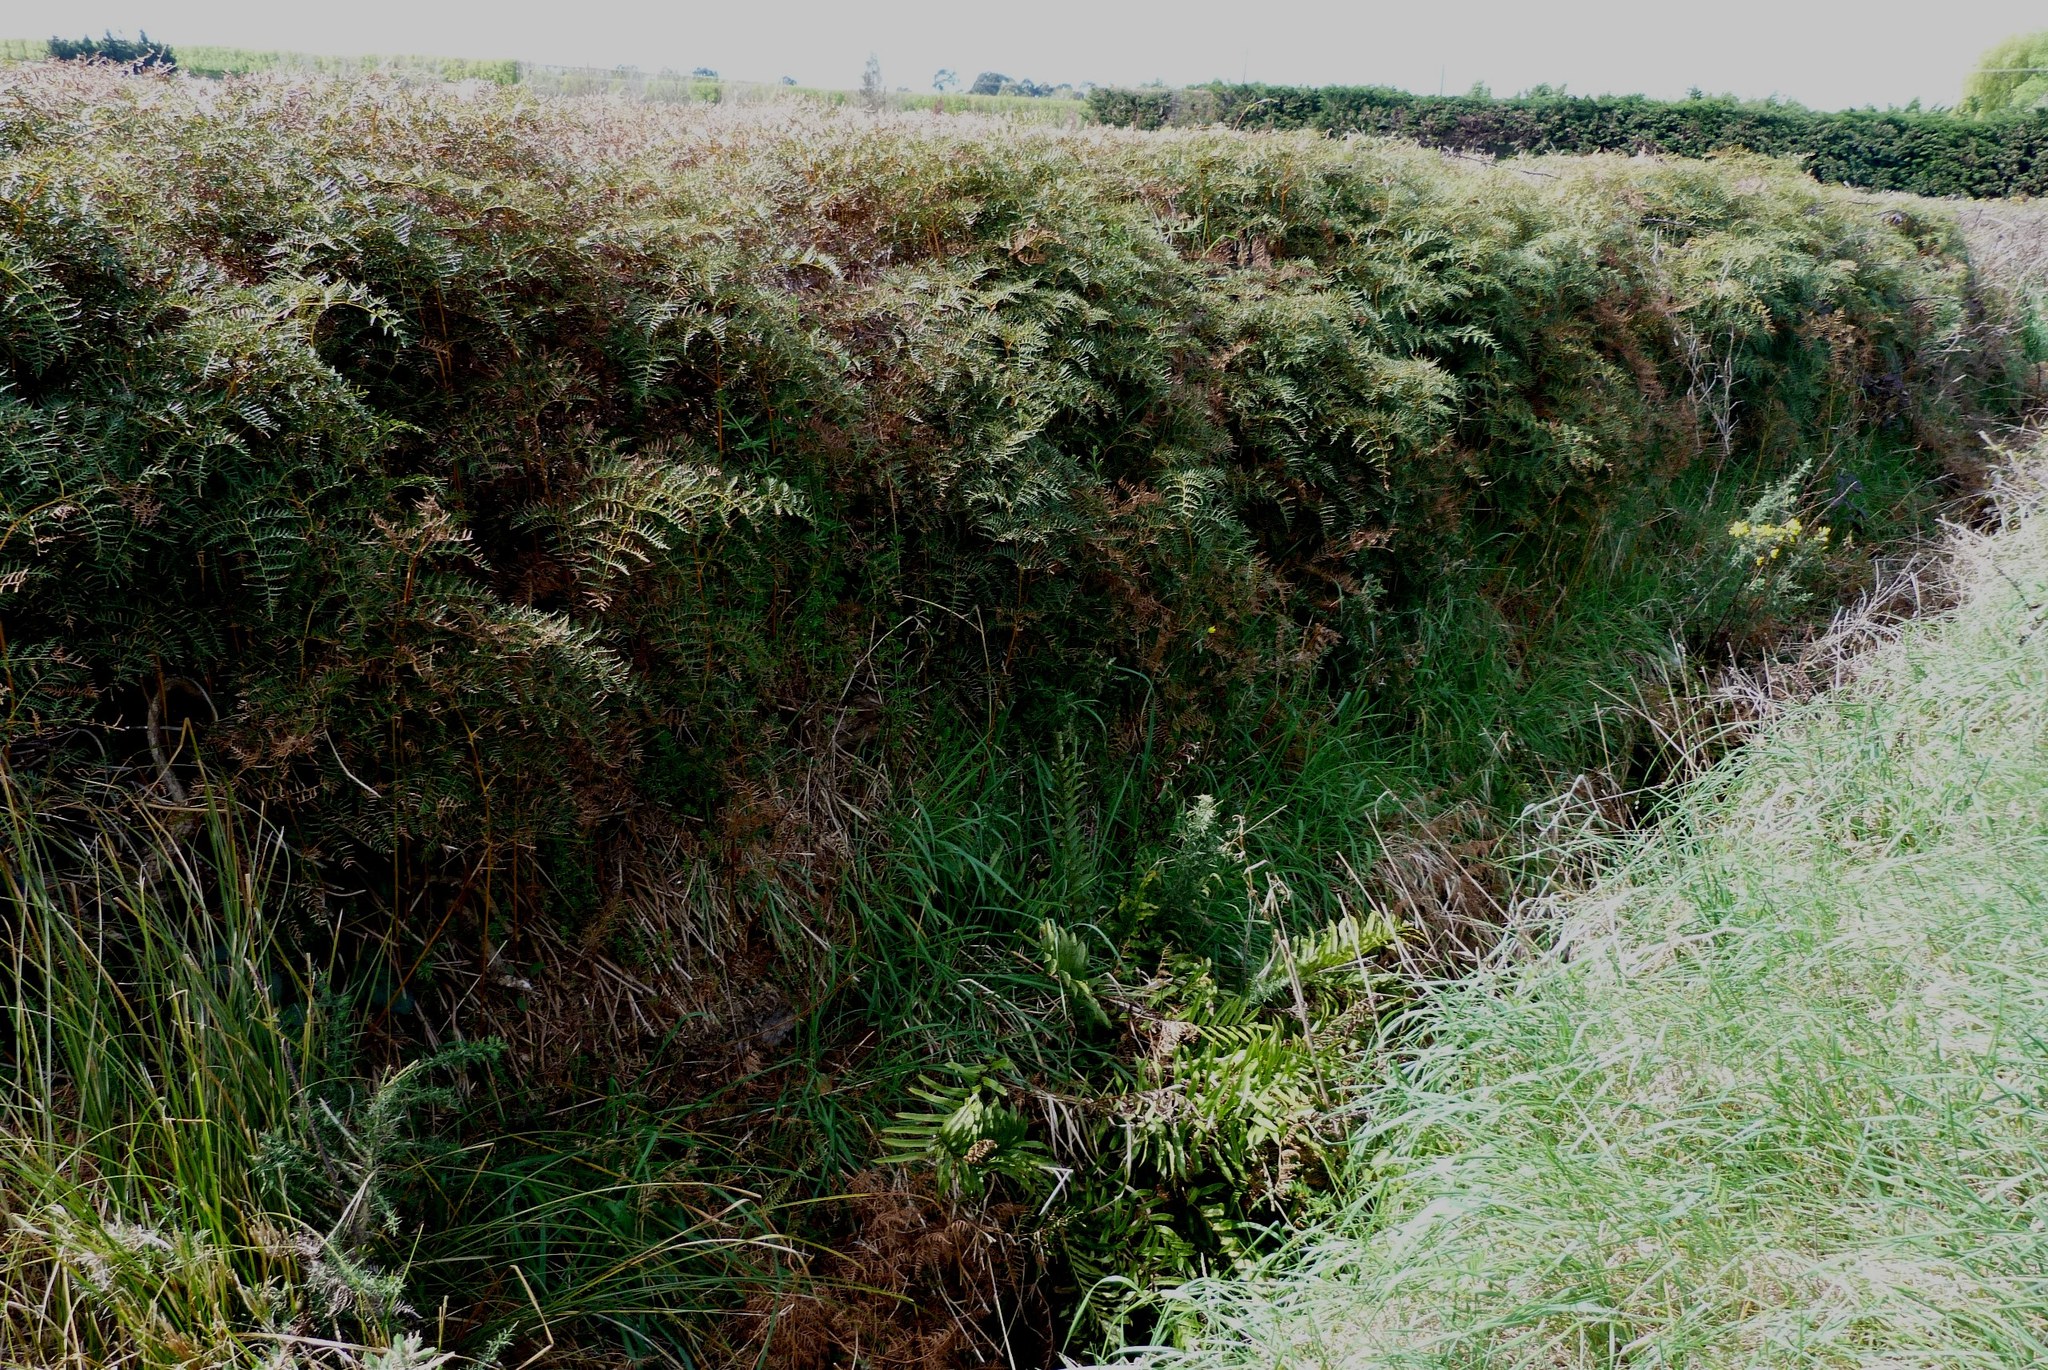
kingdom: Plantae
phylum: Tracheophyta
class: Polypodiopsida
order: Polypodiales
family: Dennstaedtiaceae
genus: Pteridium
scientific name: Pteridium esculentum
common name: Bracken fern
